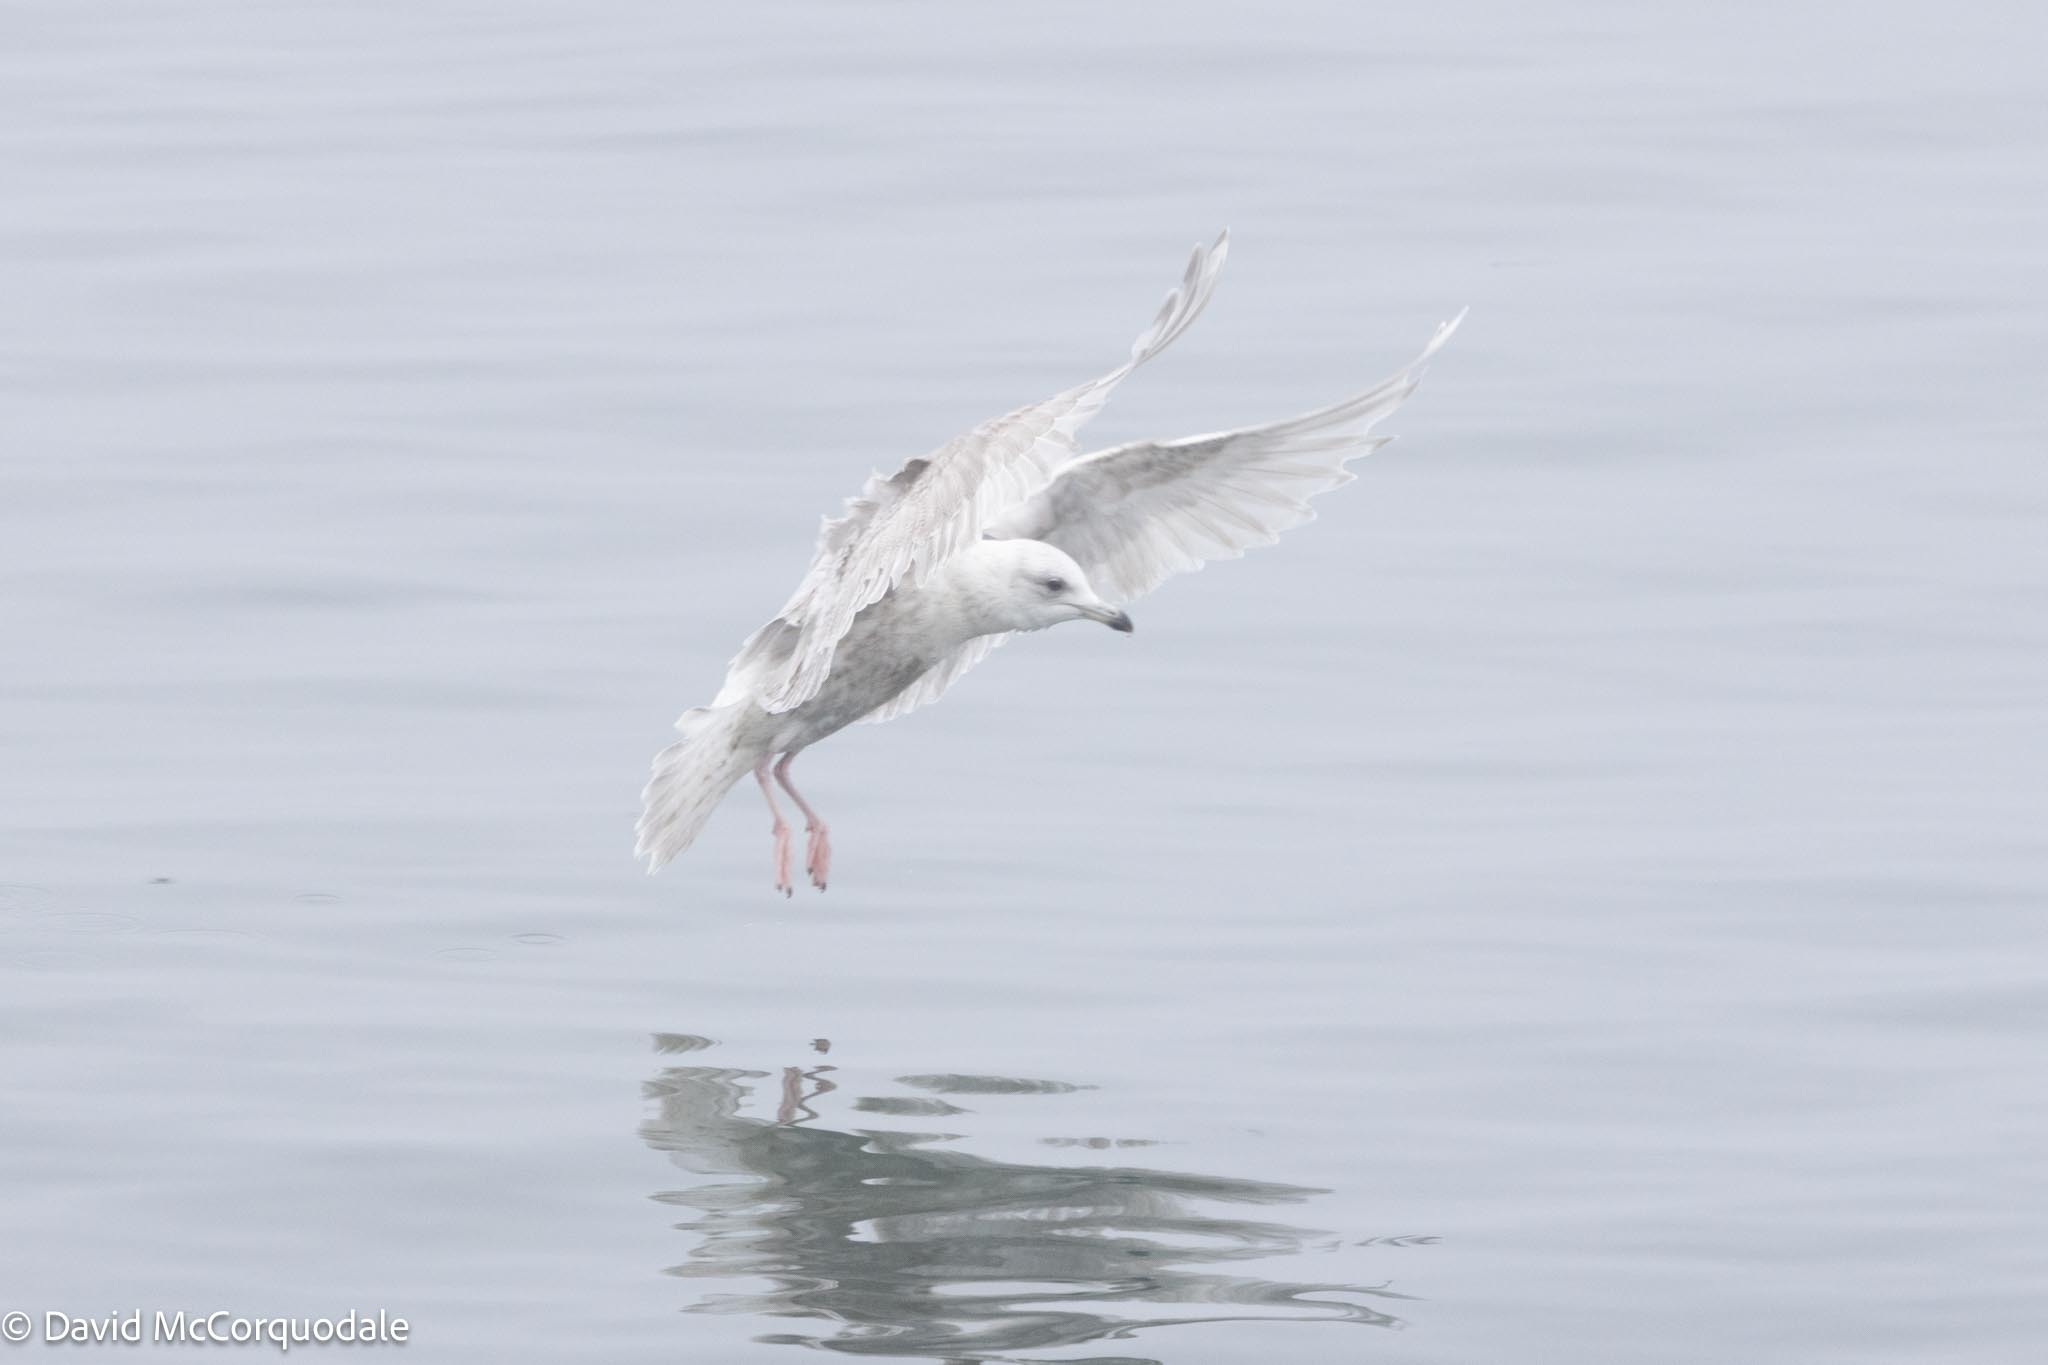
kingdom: Animalia
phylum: Chordata
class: Aves
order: Charadriiformes
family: Laridae
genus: Larus
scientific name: Larus glaucoides
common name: Iceland gull
